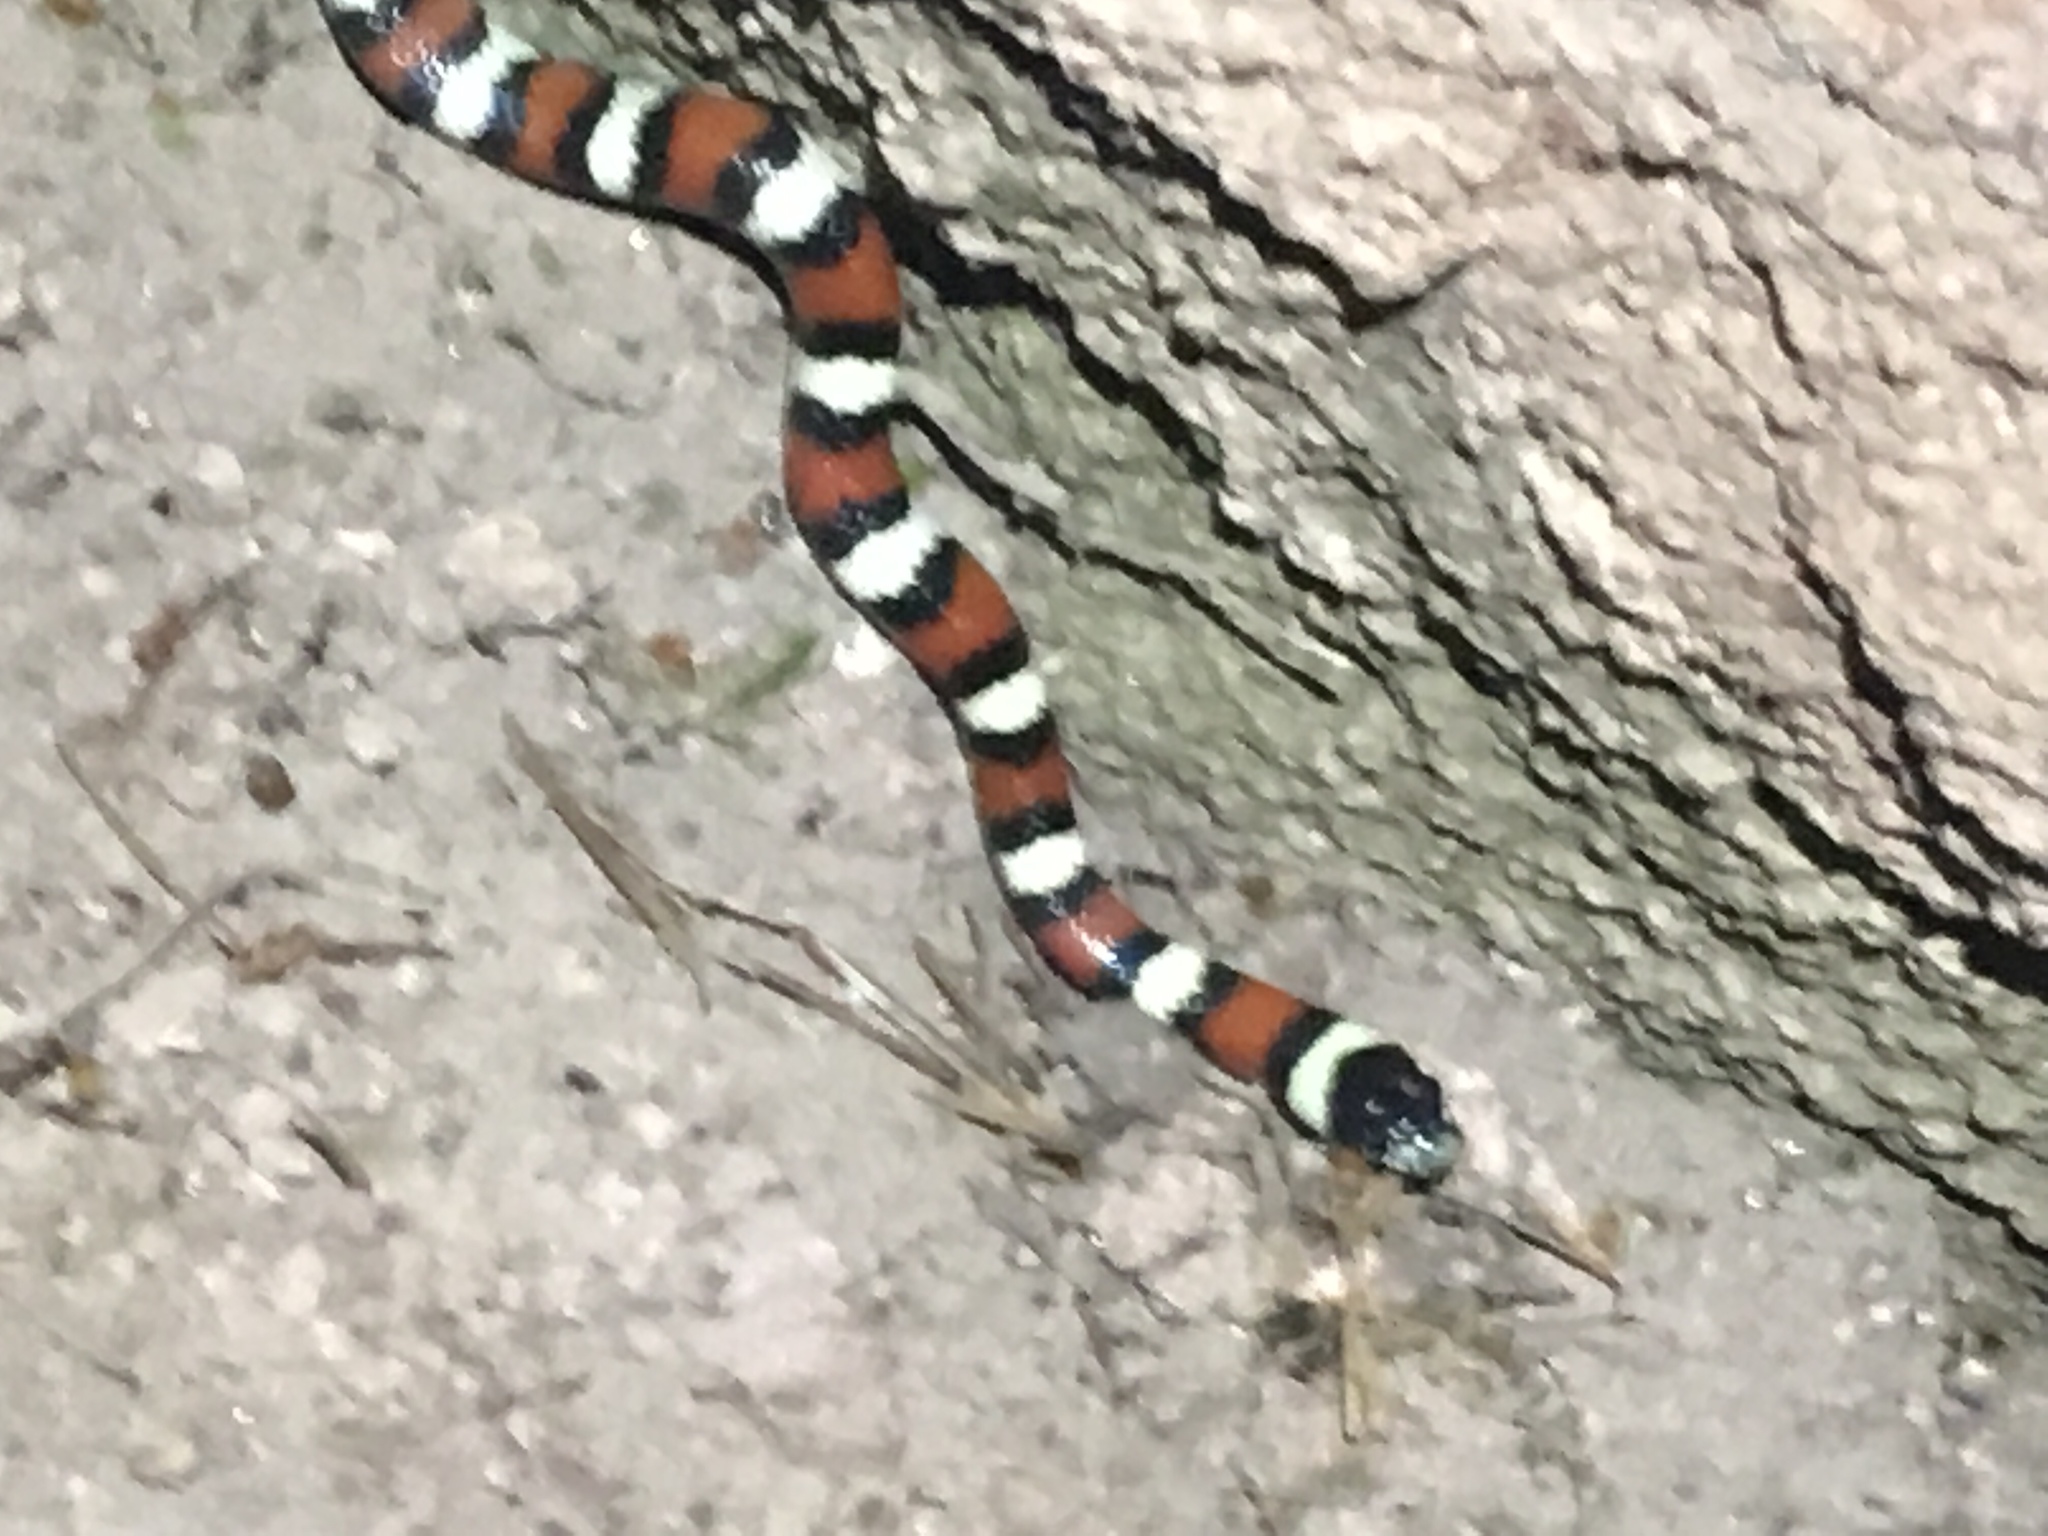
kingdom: Animalia
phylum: Chordata
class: Squamata
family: Colubridae
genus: Lampropeltis
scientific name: Lampropeltis gentilis
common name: Central plains milksnake
